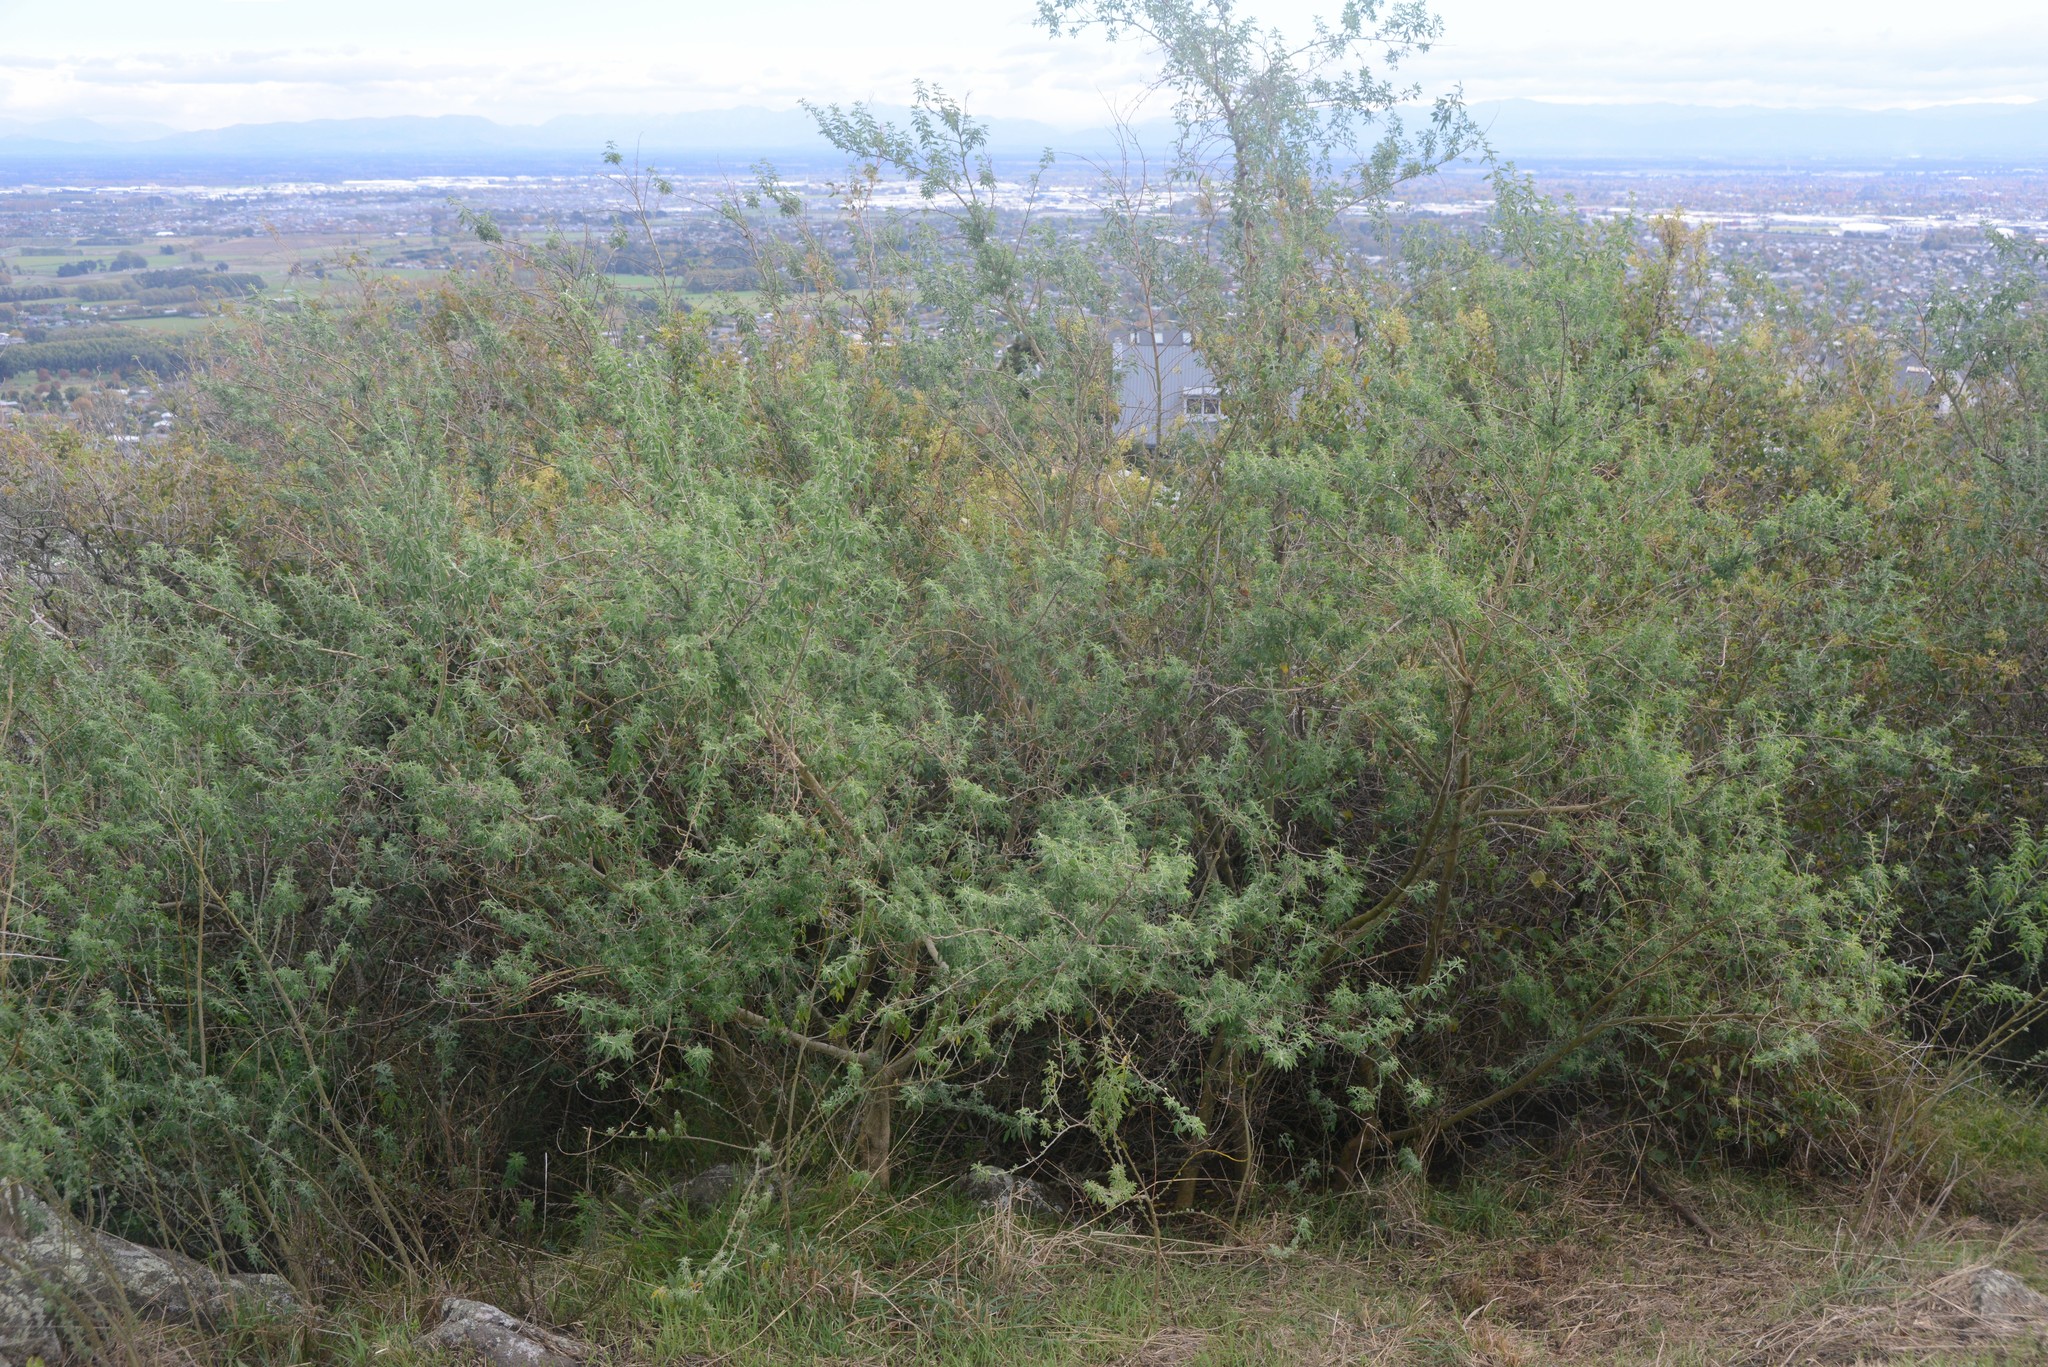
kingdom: Plantae
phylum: Tracheophyta
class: Magnoliopsida
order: Fabales
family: Fabaceae
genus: Chamaecytisus
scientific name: Chamaecytisus prolifer
